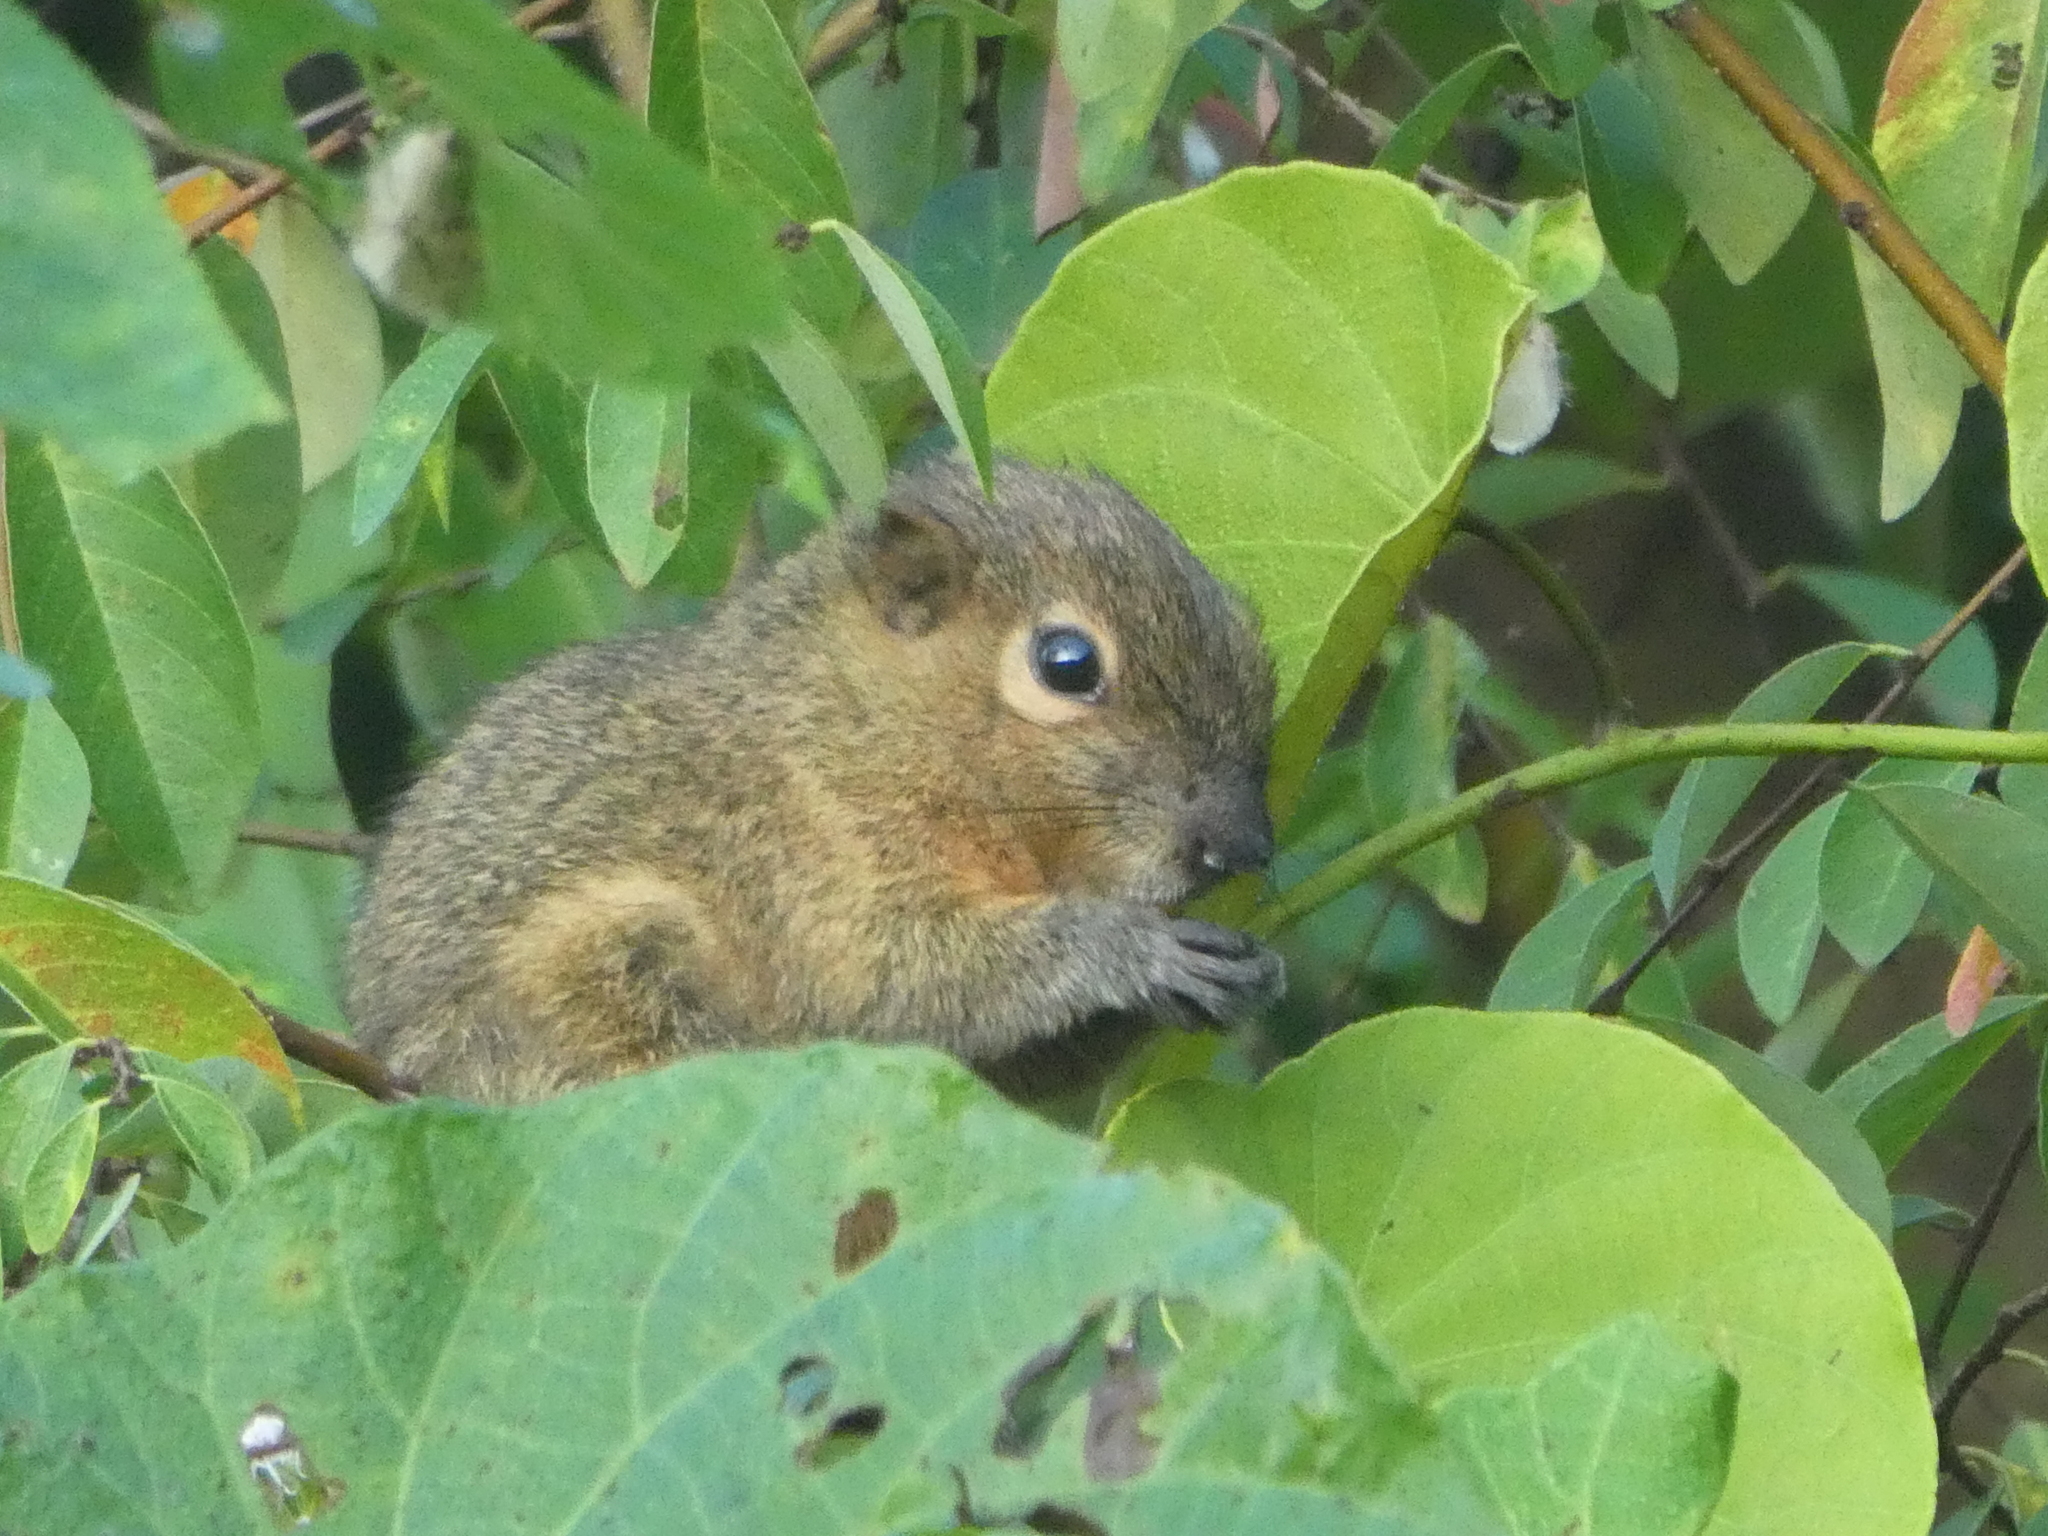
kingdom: Animalia
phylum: Chordata
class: Mammalia
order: Rodentia
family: Sciuridae
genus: Callosciurus
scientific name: Callosciurus notatus
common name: Plantain squirrel
